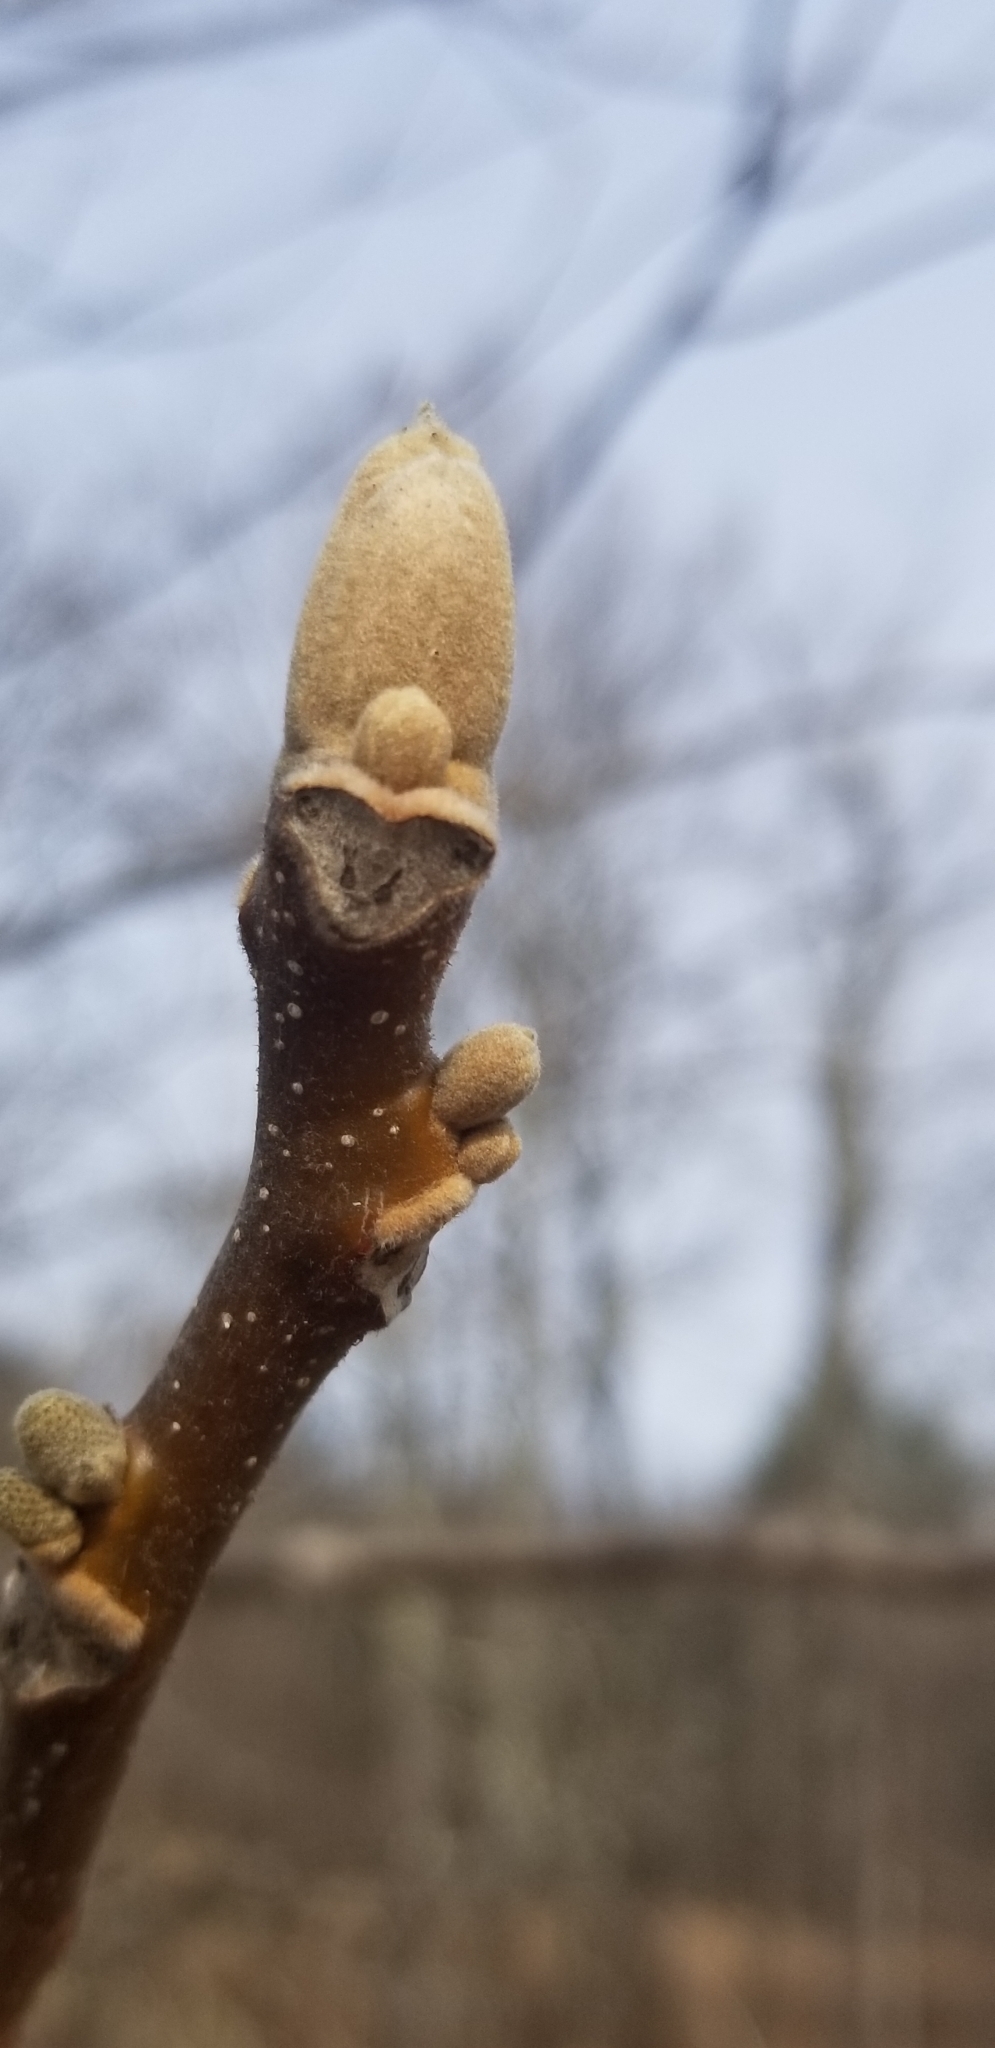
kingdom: Plantae
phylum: Tracheophyta
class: Magnoliopsida
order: Fagales
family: Juglandaceae
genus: Juglans
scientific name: Juglans cinerea
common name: Butternut
